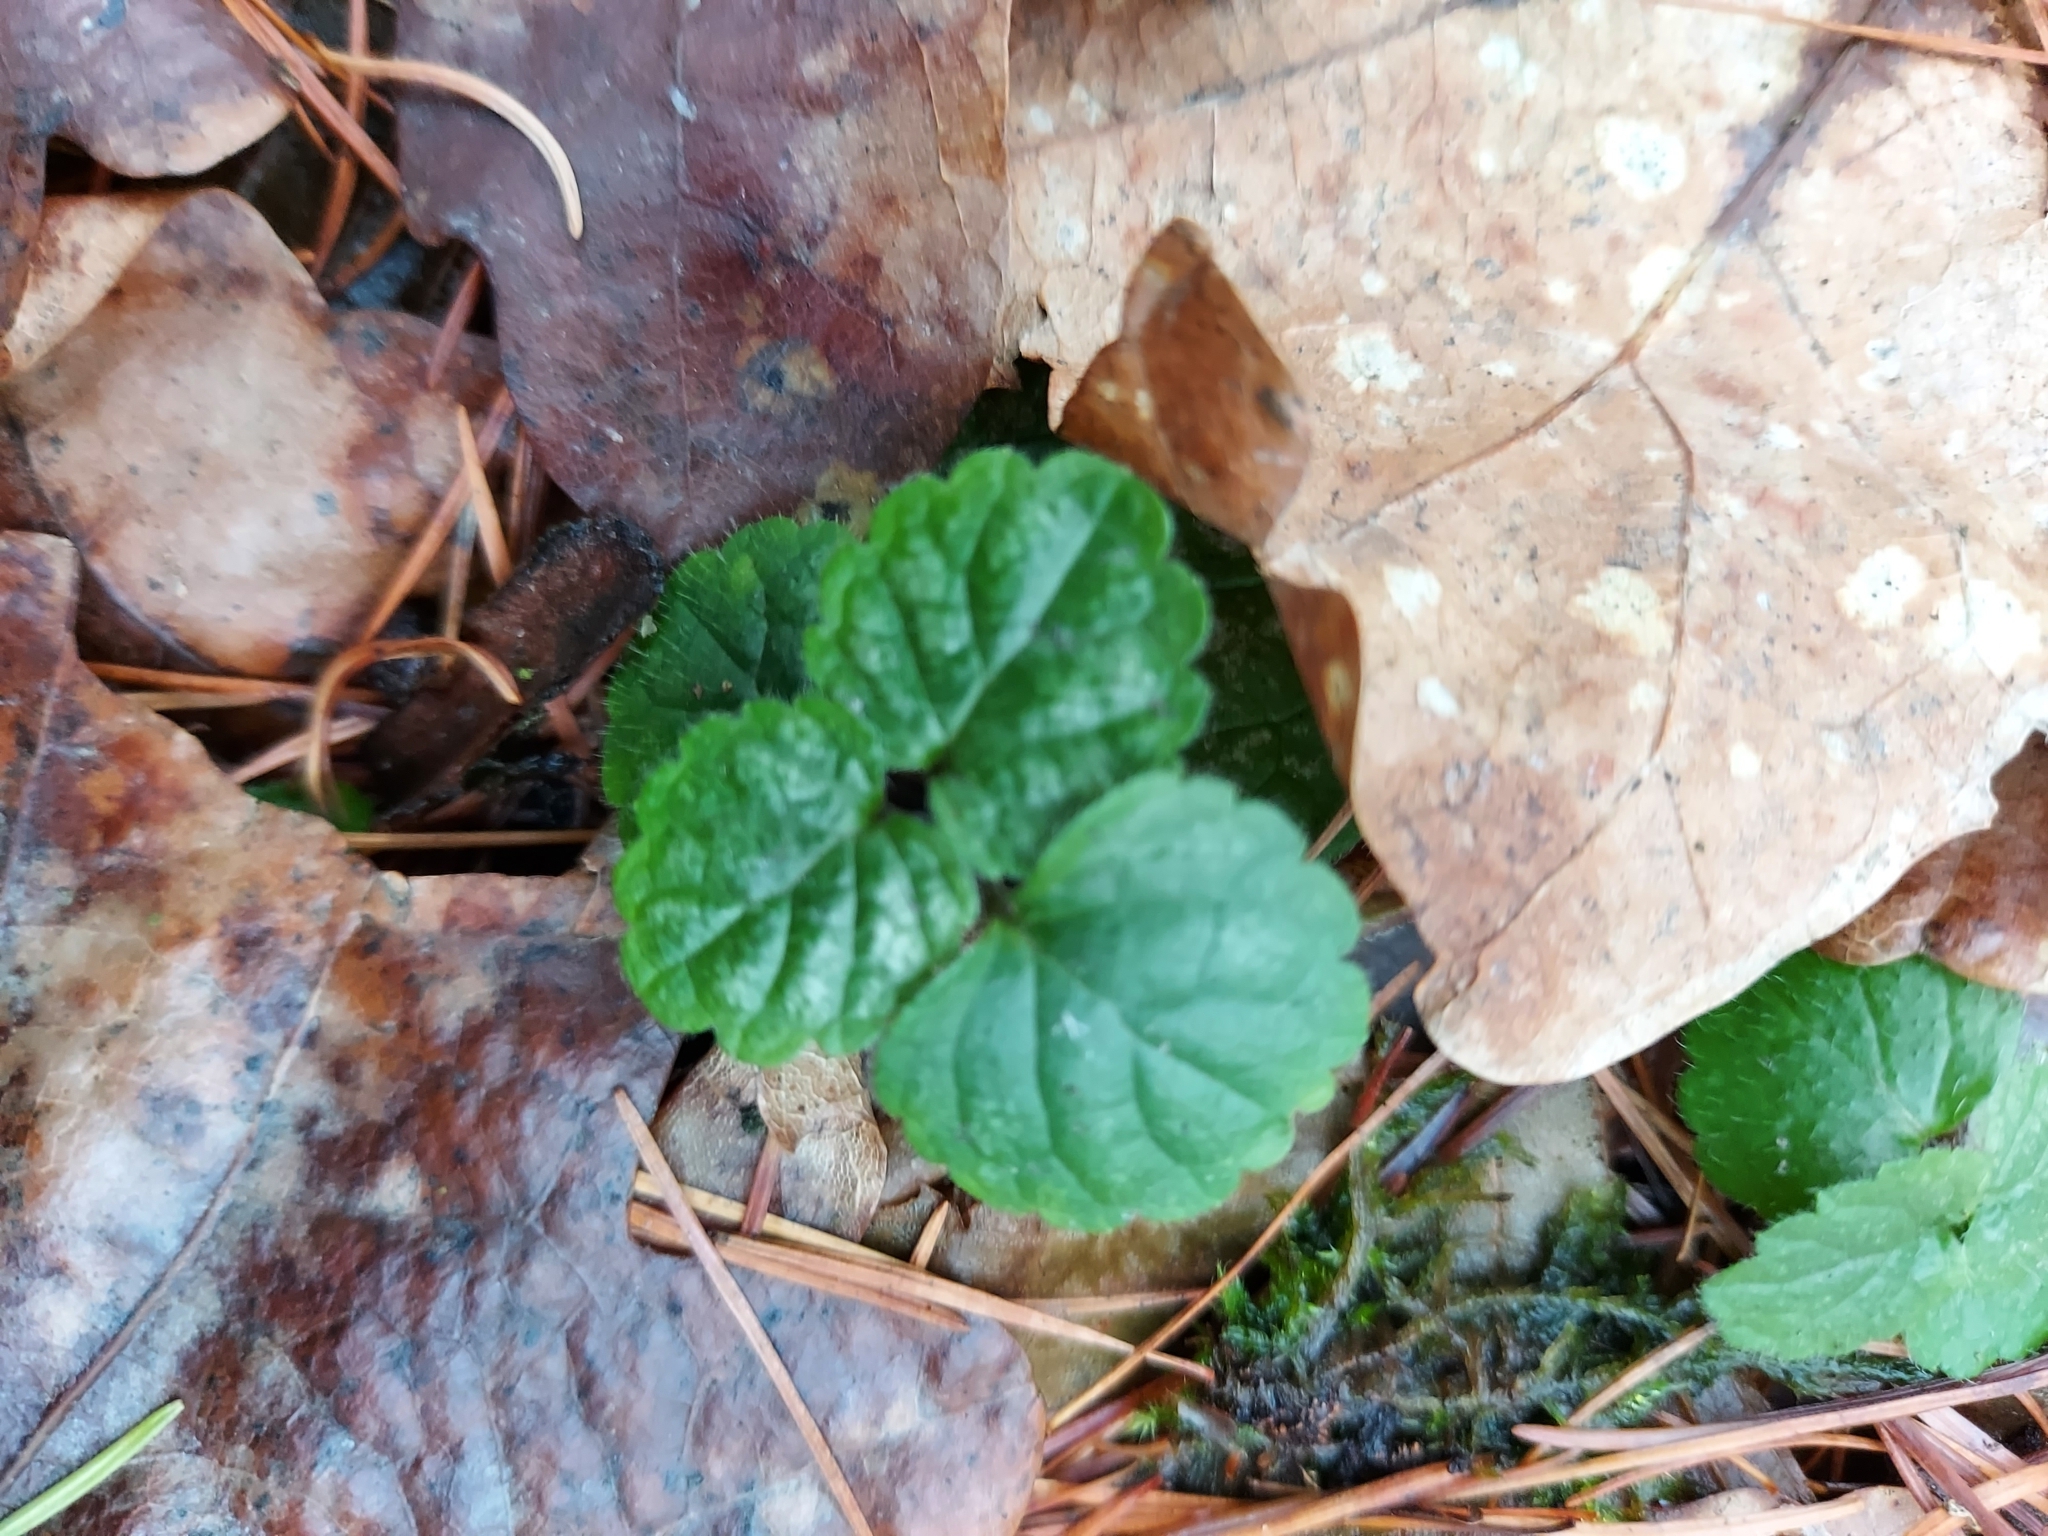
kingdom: Plantae
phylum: Tracheophyta
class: Magnoliopsida
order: Lamiales
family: Lamiaceae
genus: Lamium
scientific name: Lamium galeobdolon
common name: Yellow archangel
